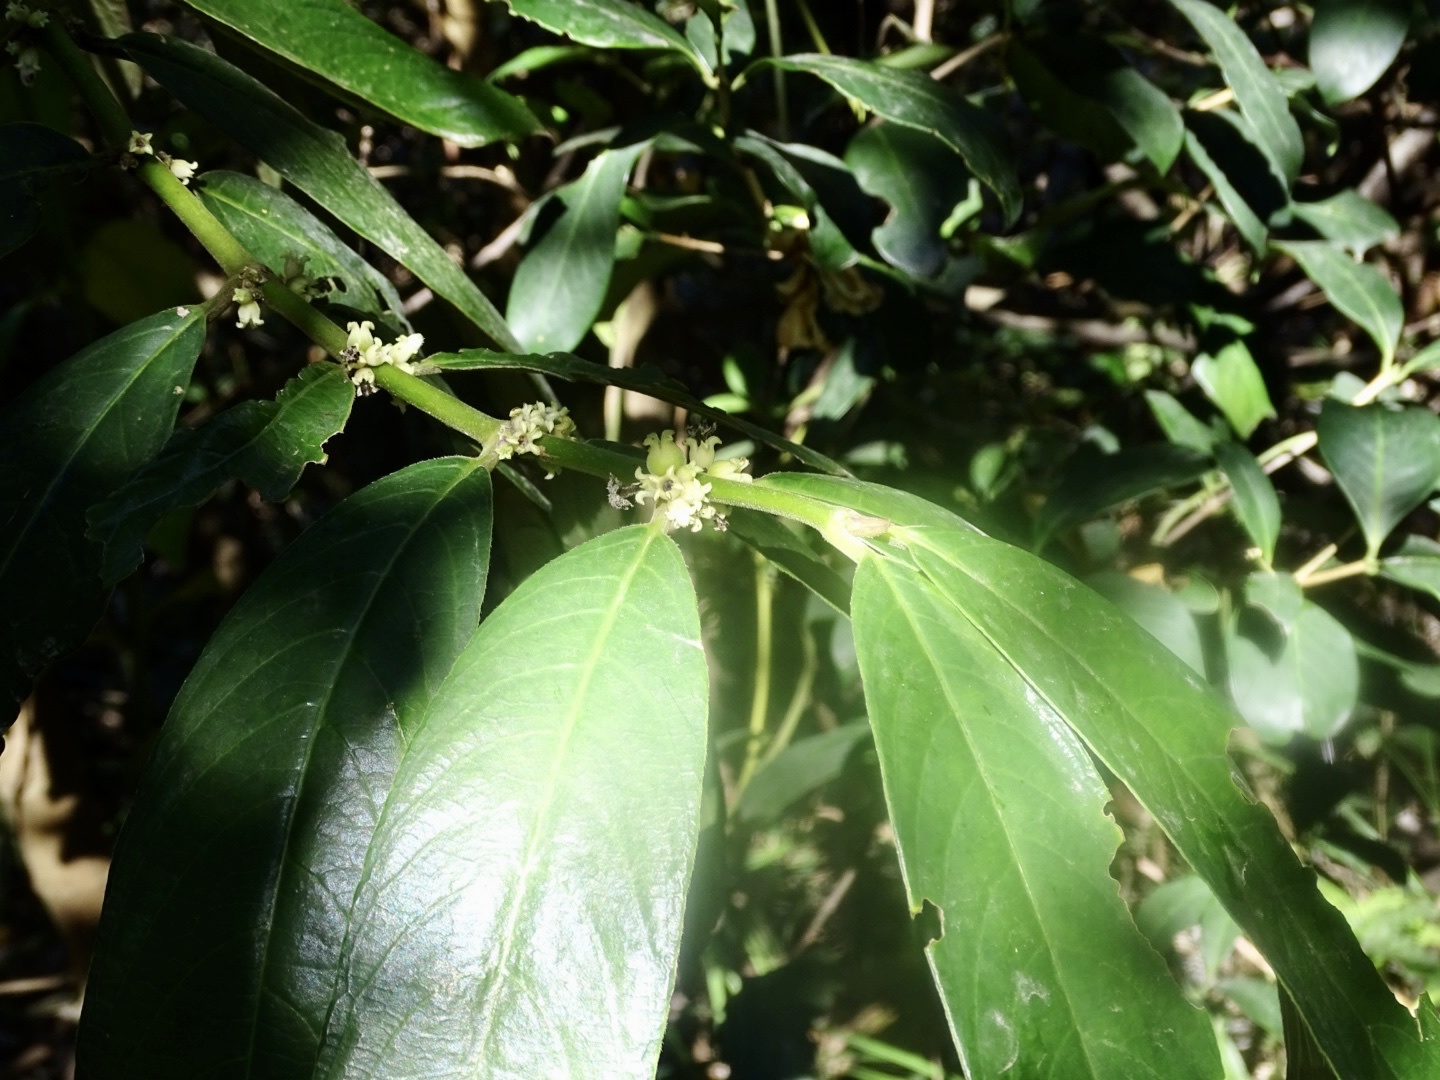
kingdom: Plantae
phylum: Tracheophyta
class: Magnoliopsida
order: Gentianales
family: Rubiaceae
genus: Lasianthus
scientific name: Lasianthus chinensis
